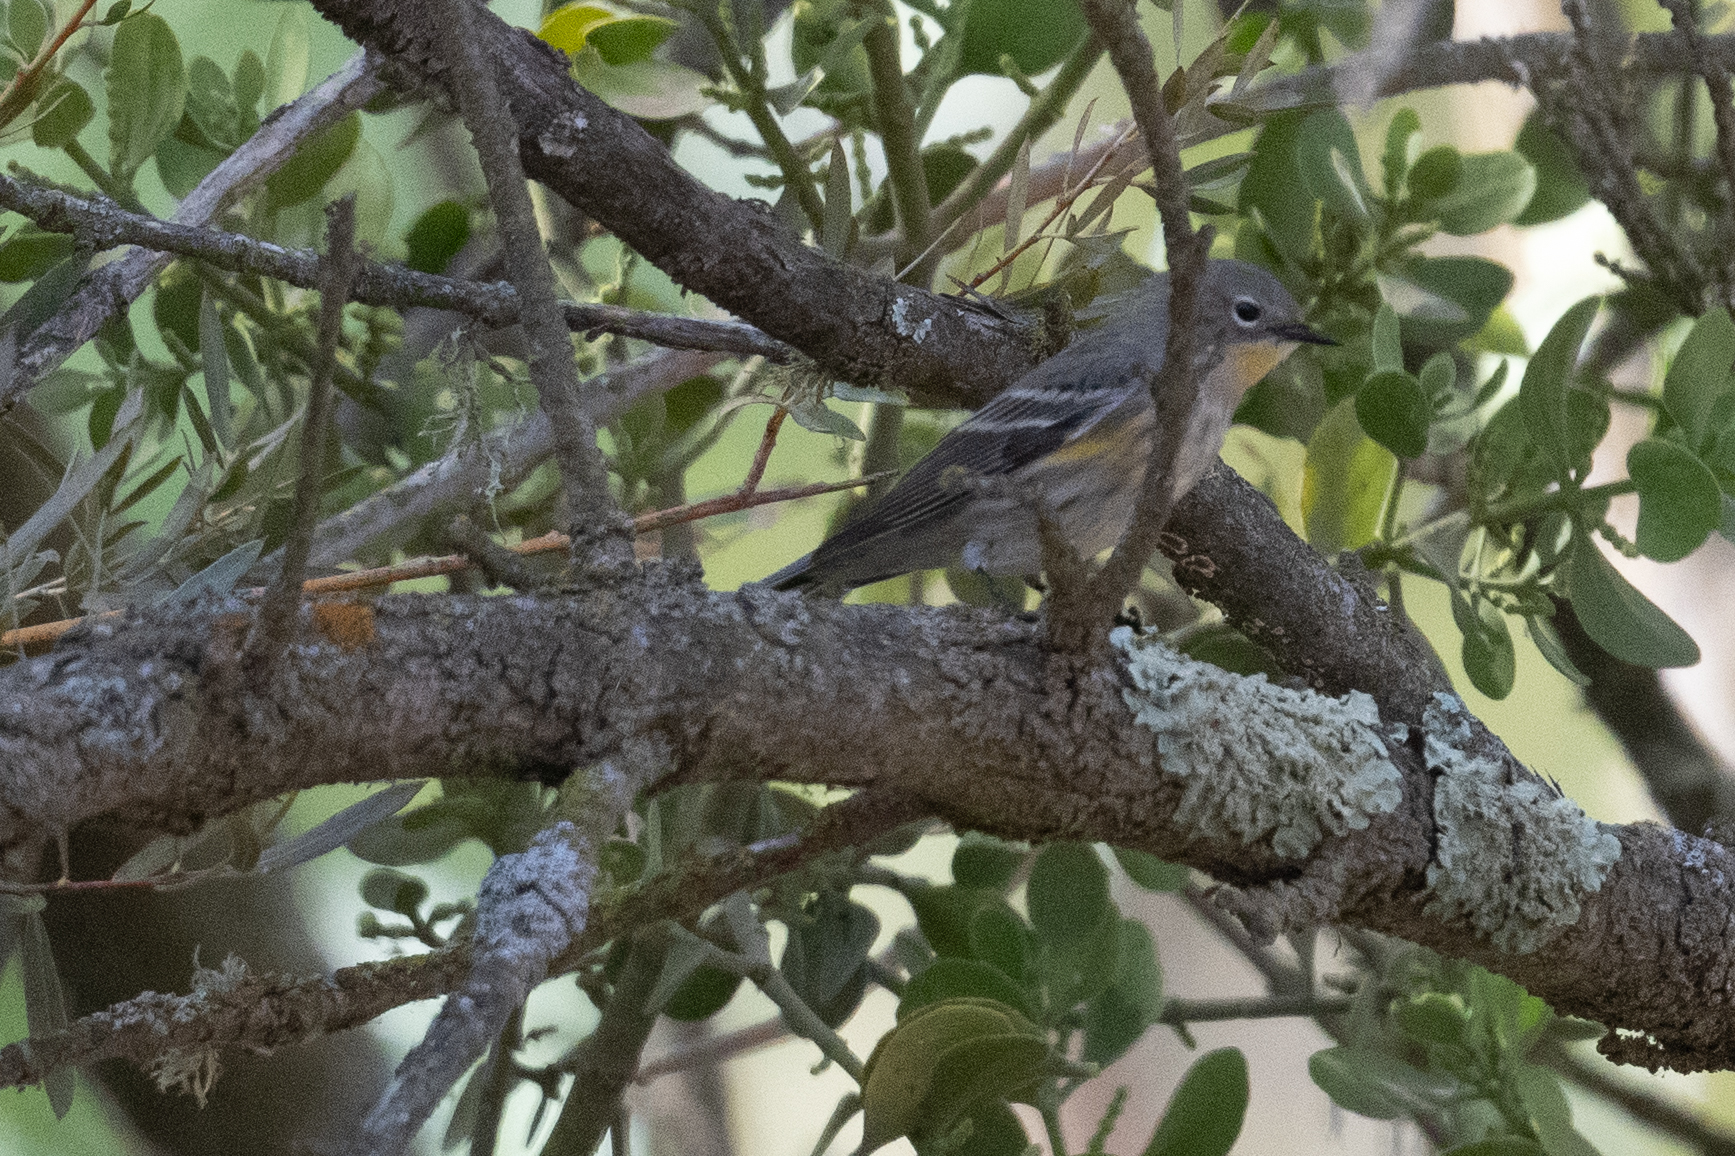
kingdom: Animalia
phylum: Chordata
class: Aves
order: Passeriformes
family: Parulidae
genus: Setophaga
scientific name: Setophaga coronata
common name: Myrtle warbler
